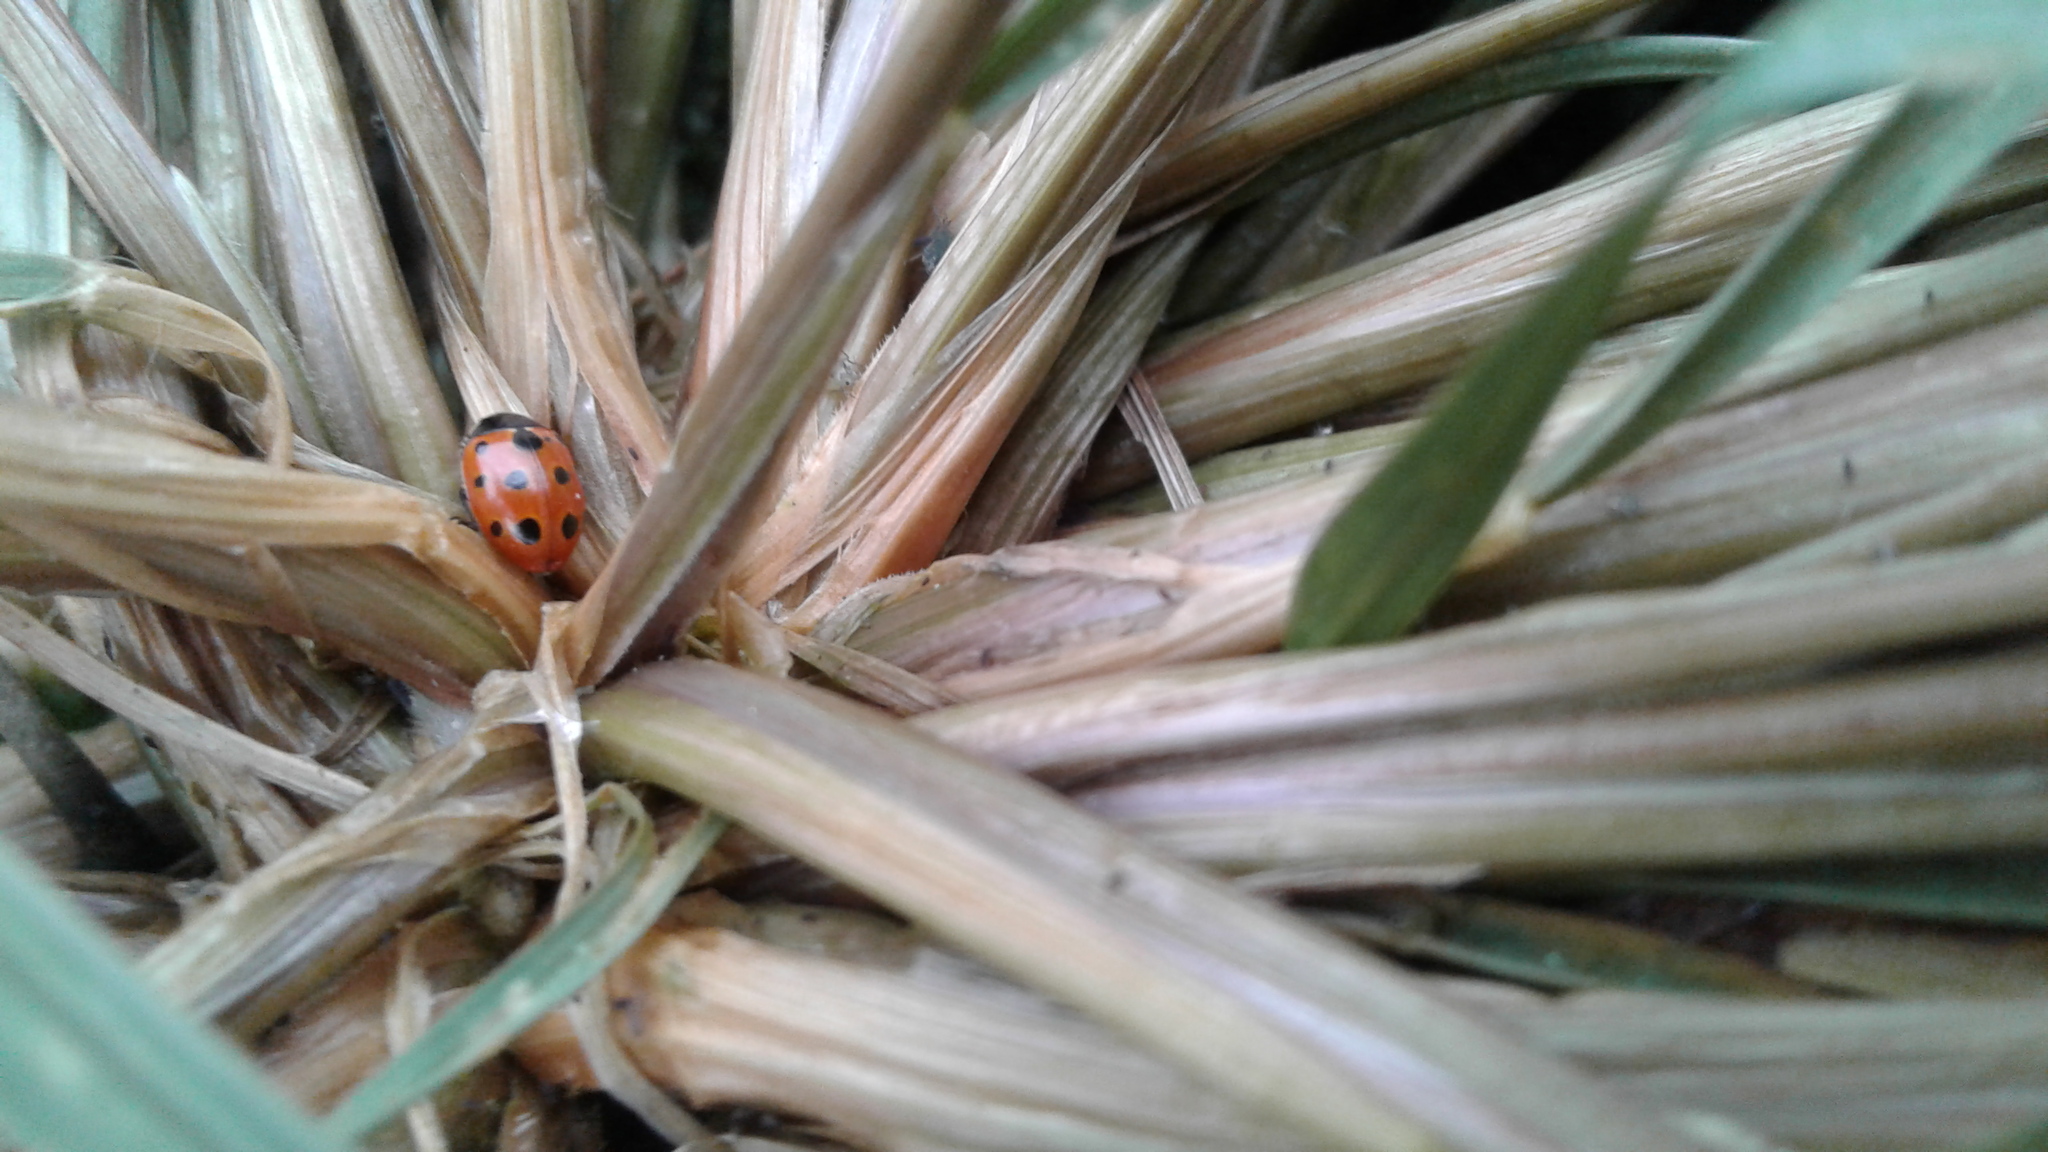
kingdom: Animalia
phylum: Arthropoda
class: Insecta
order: Coleoptera
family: Coccinellidae
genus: Coccinella
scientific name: Coccinella undecimpunctata
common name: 11-spot ladybird
